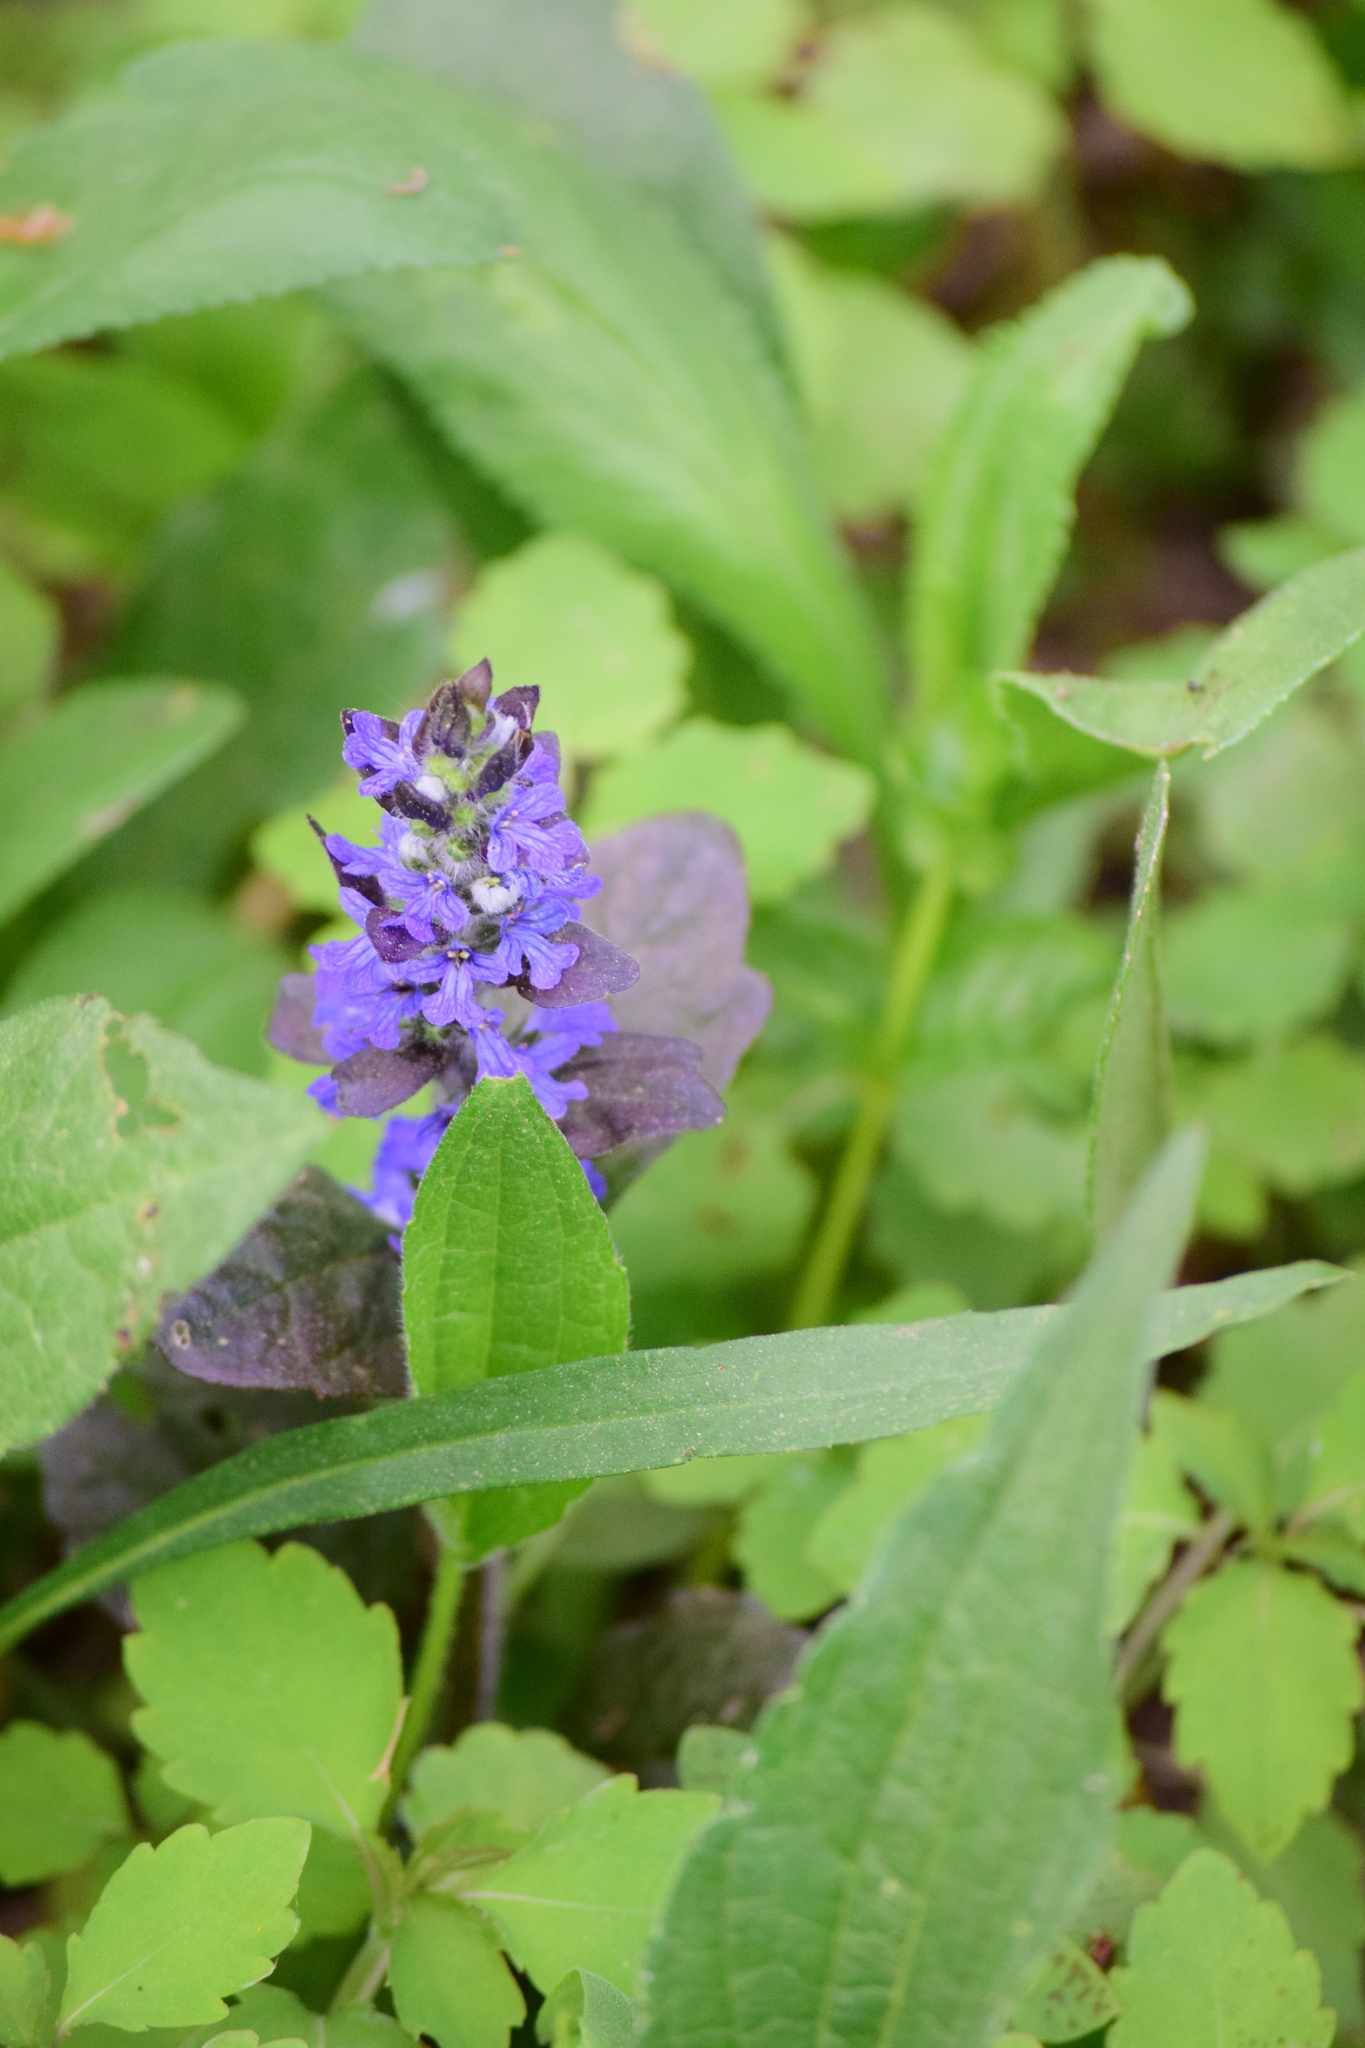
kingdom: Plantae
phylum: Tracheophyta
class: Magnoliopsida
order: Lamiales
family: Lamiaceae
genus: Ajuga
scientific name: Ajuga reptans
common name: Bugle
